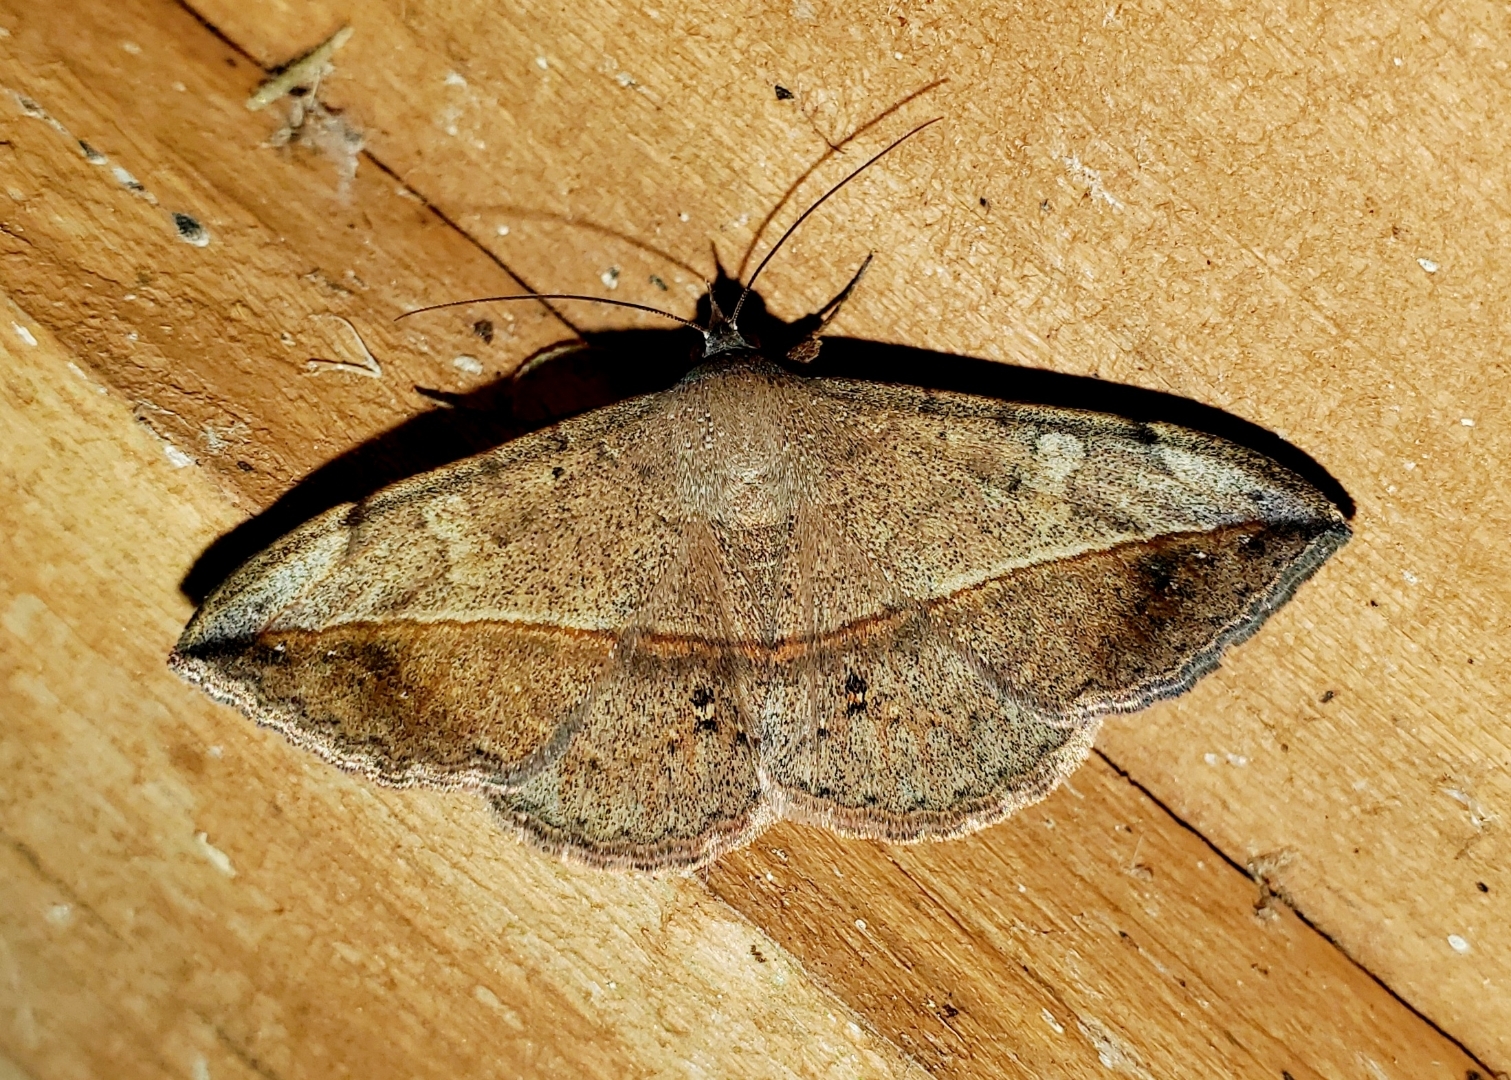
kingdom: Animalia
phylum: Arthropoda
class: Insecta
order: Lepidoptera
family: Erebidae
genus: Anticarsia
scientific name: Anticarsia gemmatalis
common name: Cutworm moth
